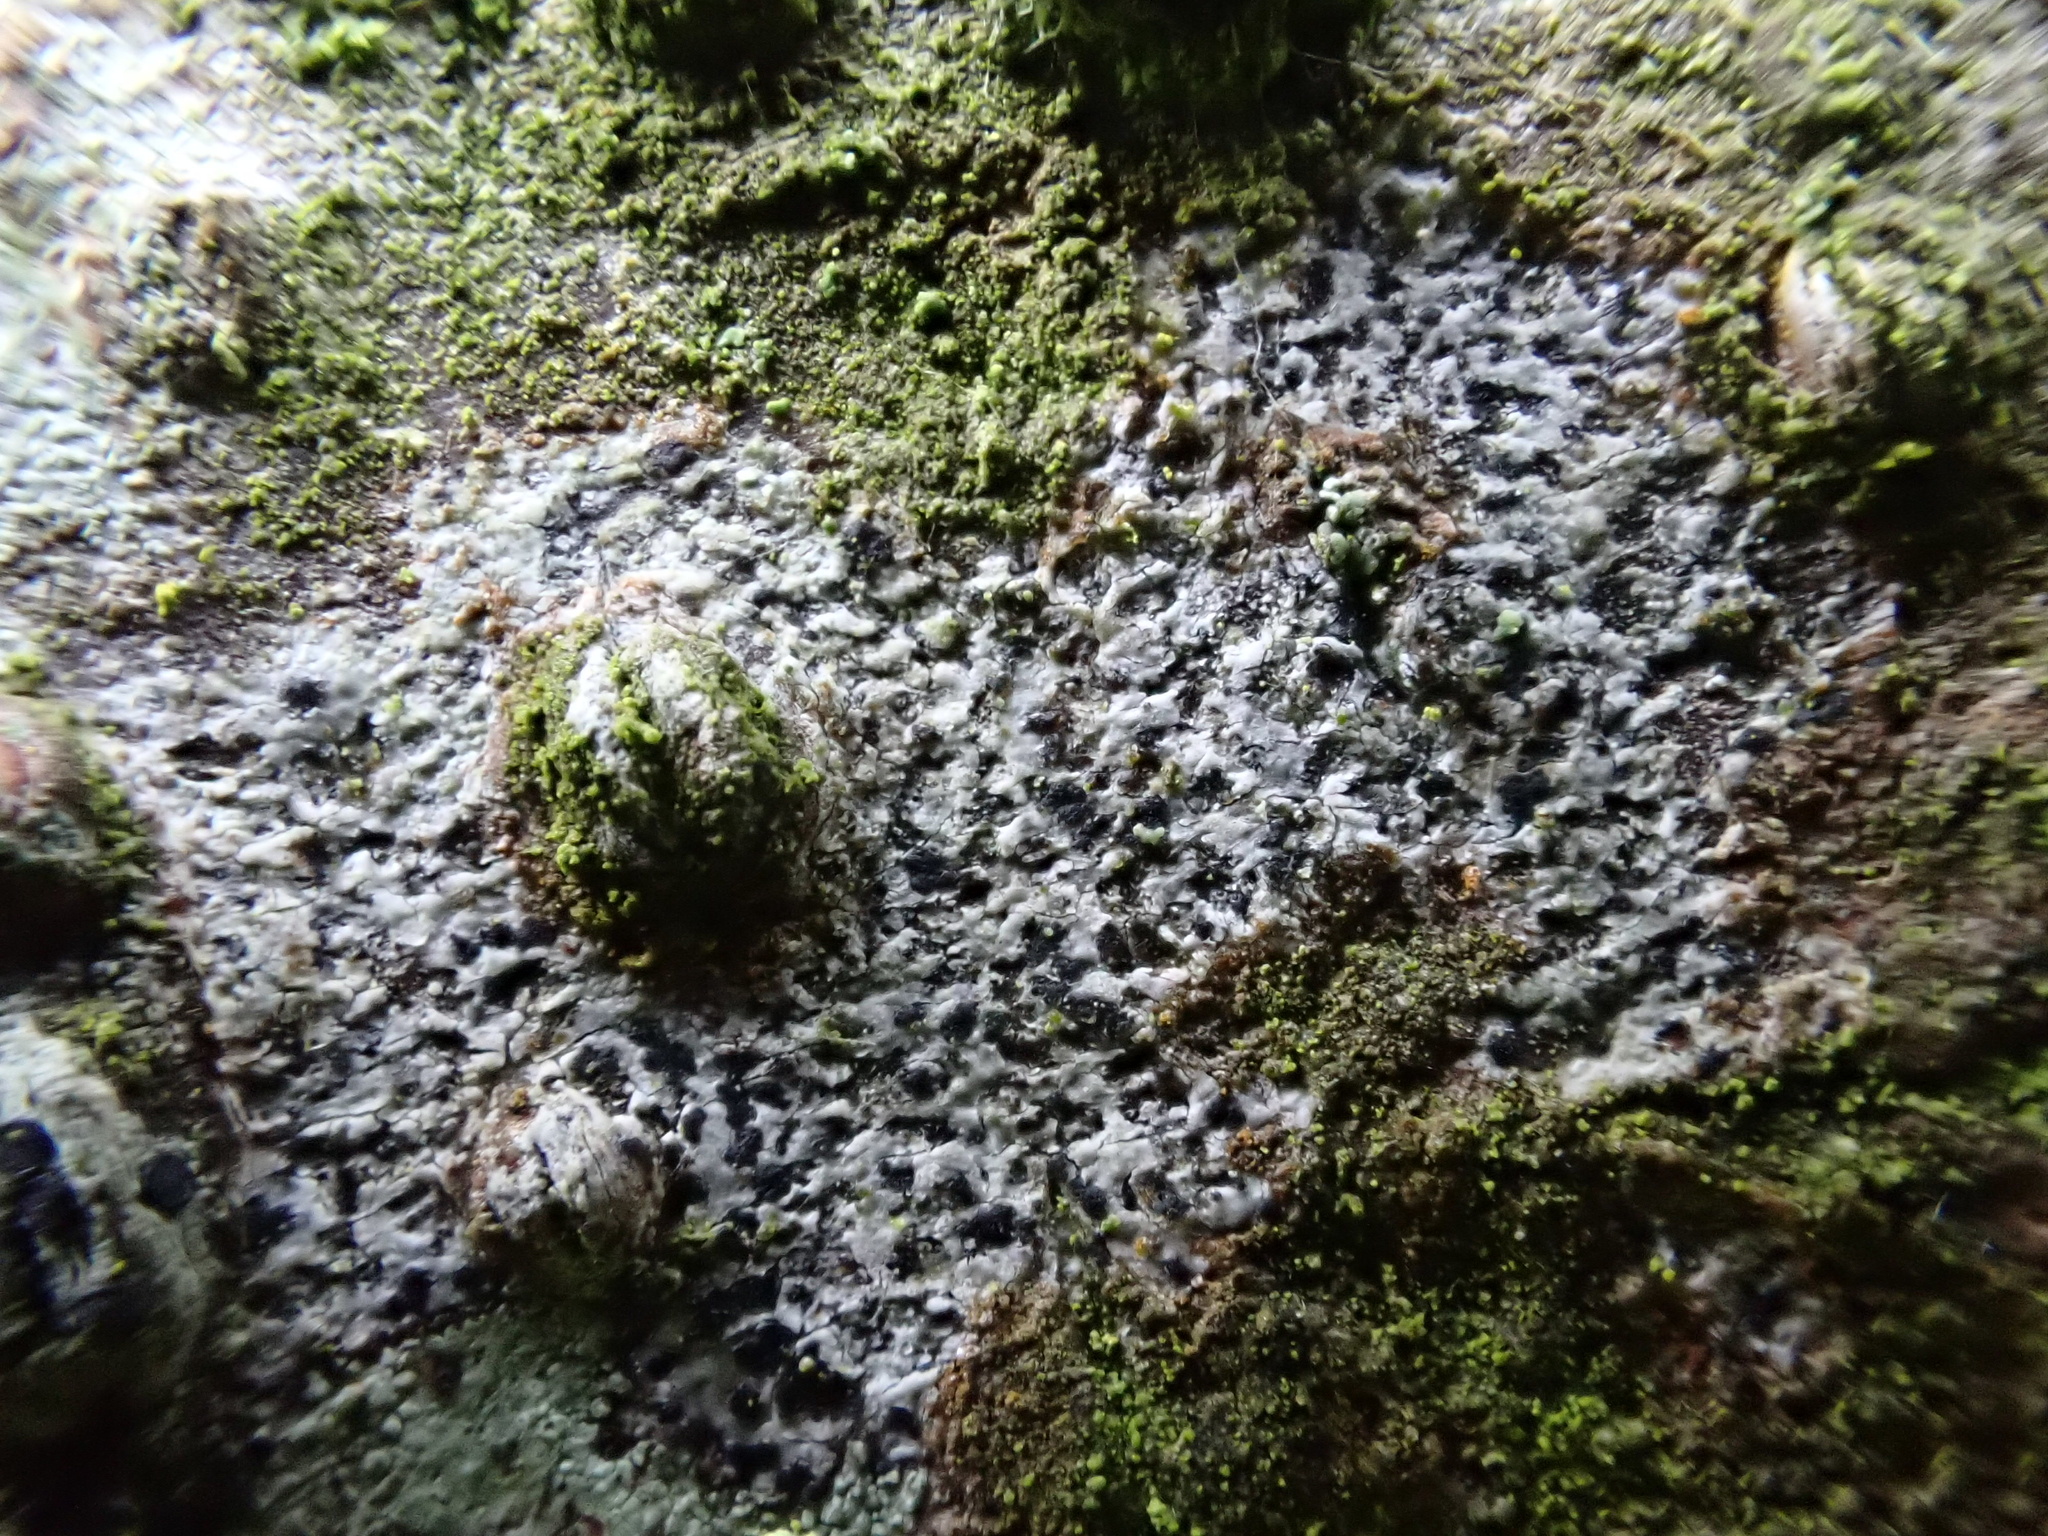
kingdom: Fungi
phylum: Ascomycota
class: Arthoniomycetes
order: Arthoniales
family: Arthoniaceae
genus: Arthonia
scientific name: Arthonia radiata
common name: Asterisk lichen
